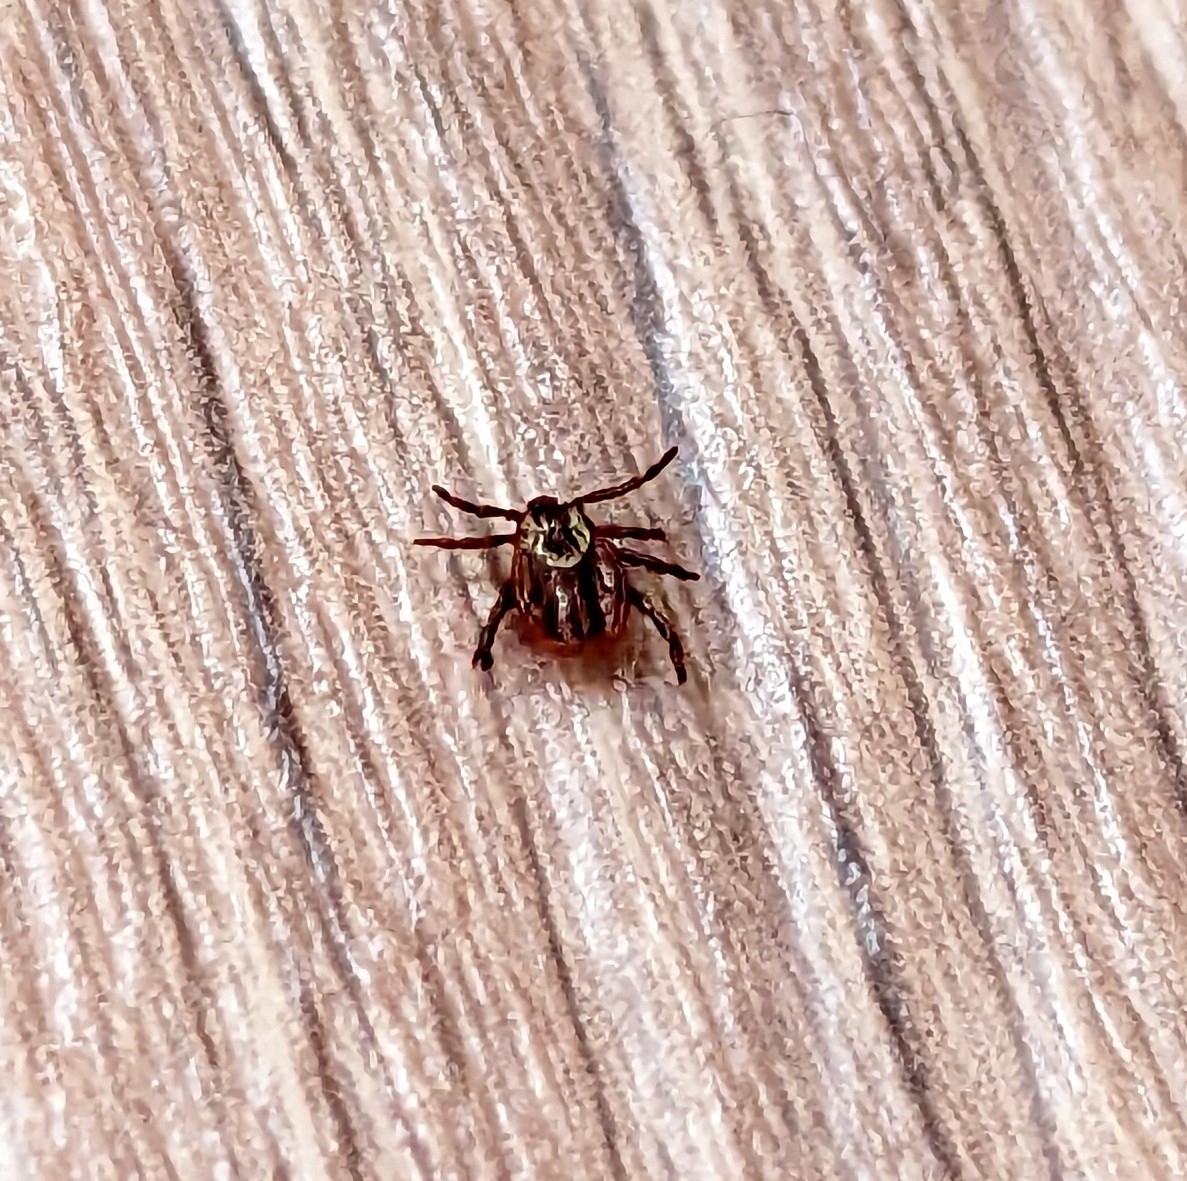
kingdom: Animalia
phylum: Arthropoda
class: Arachnida
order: Ixodida
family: Ixodidae
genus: Dermacentor
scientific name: Dermacentor reticulatus
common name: Ornate cow tick
